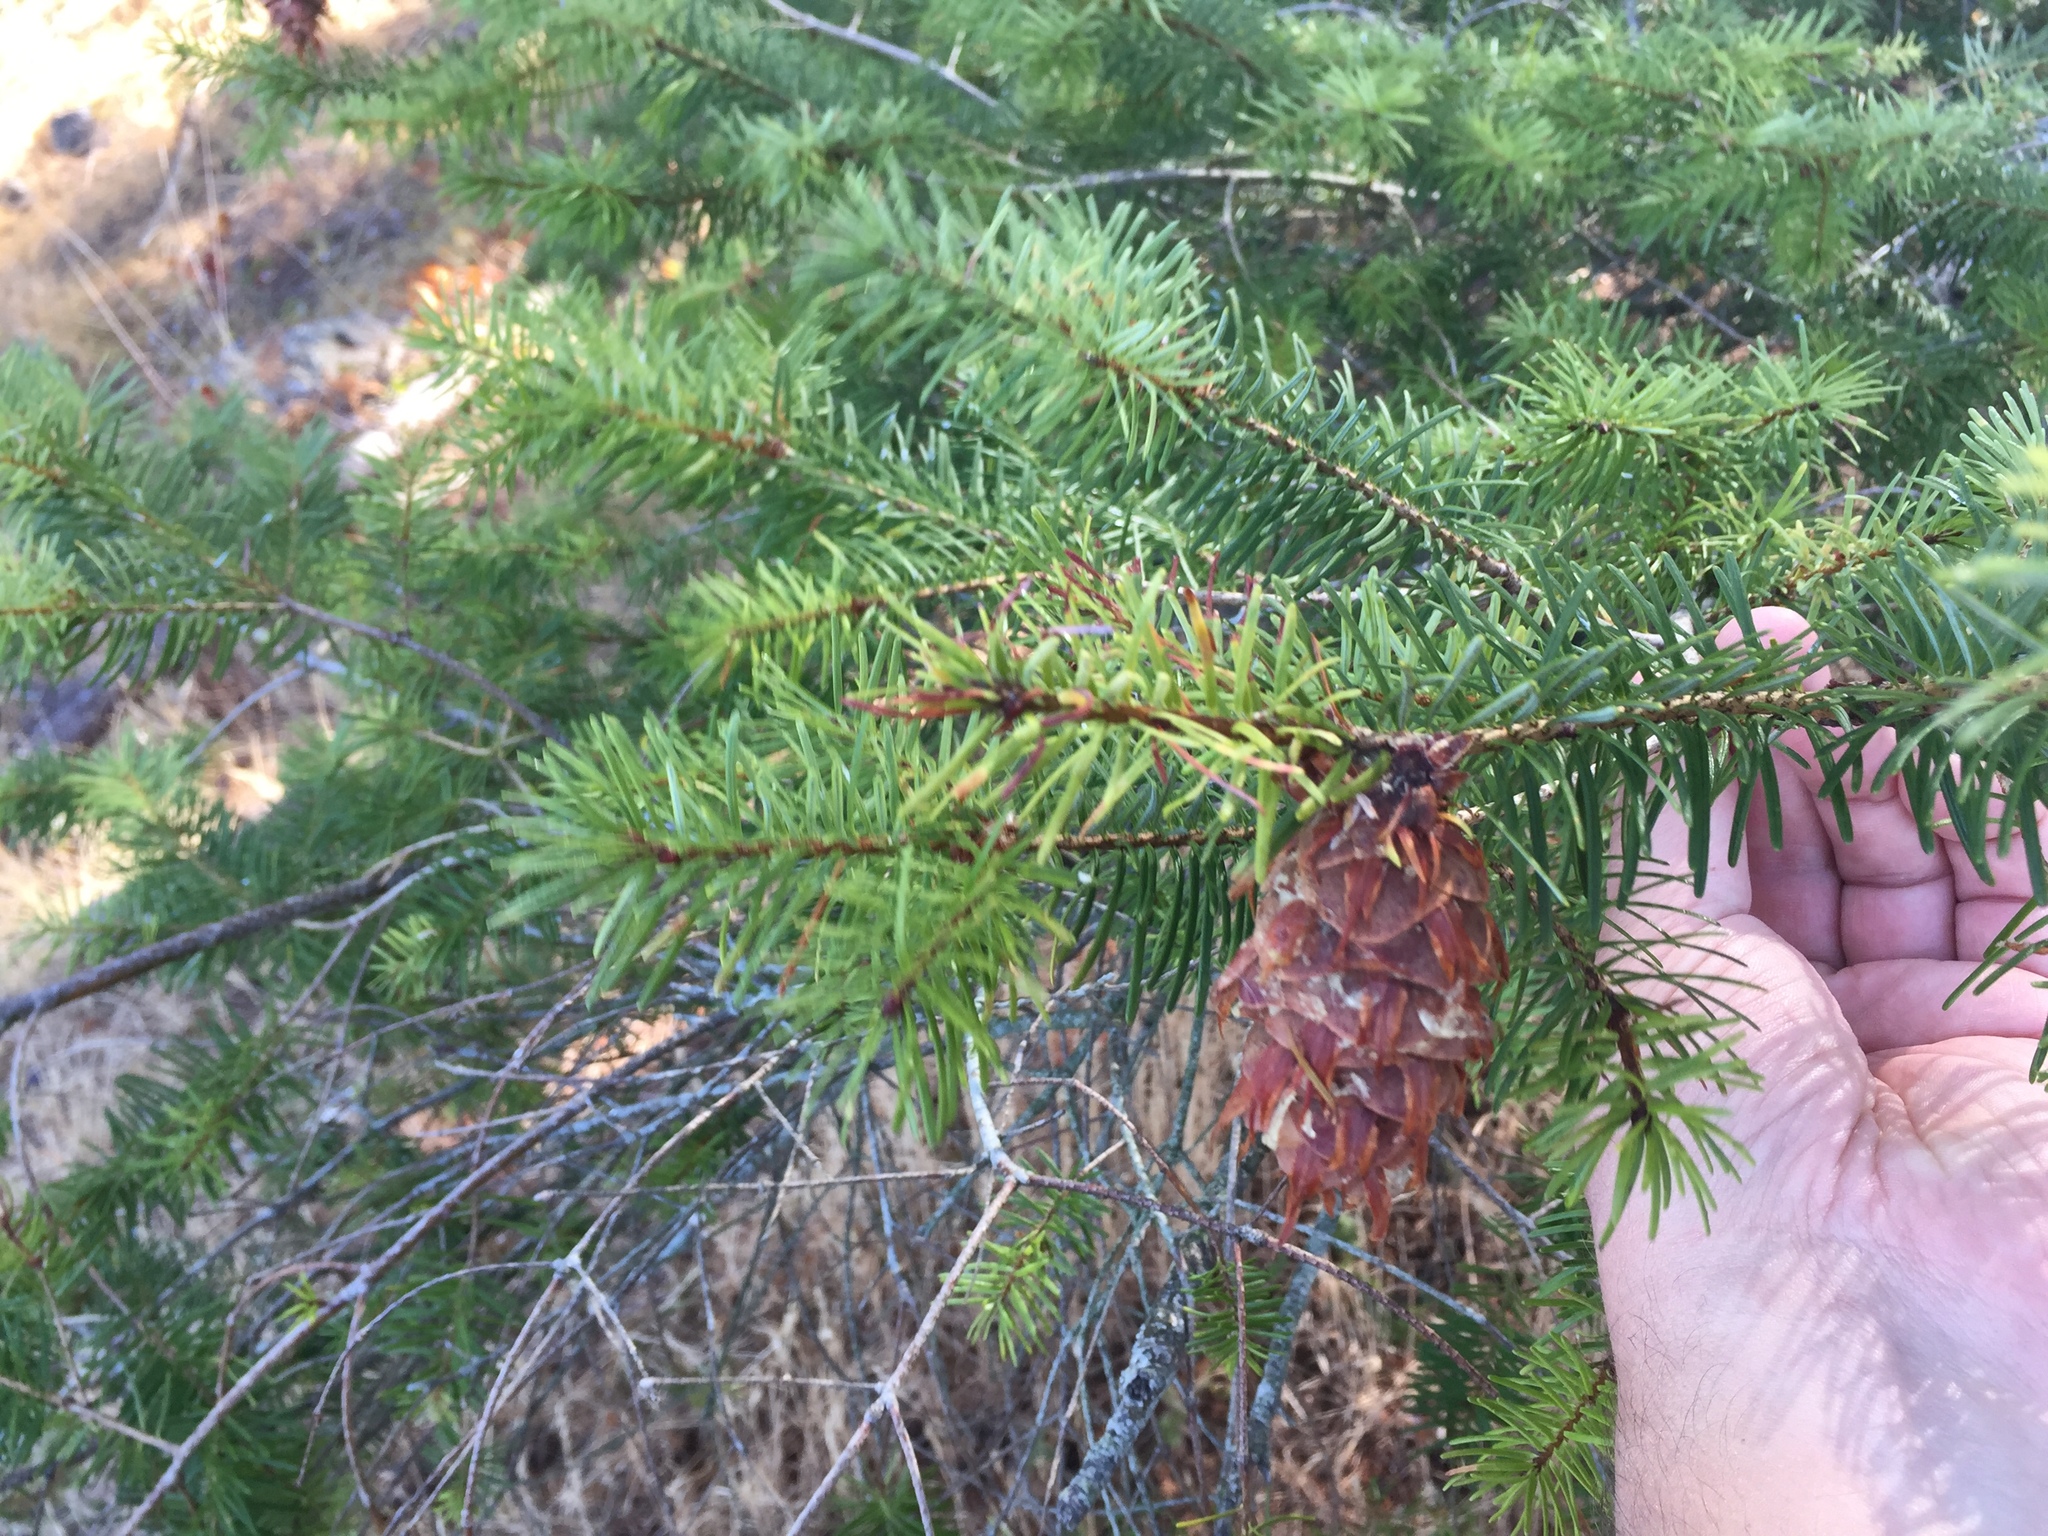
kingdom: Plantae
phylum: Tracheophyta
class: Pinopsida
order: Pinales
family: Pinaceae
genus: Pseudotsuga
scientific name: Pseudotsuga menziesii
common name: Douglas fir
